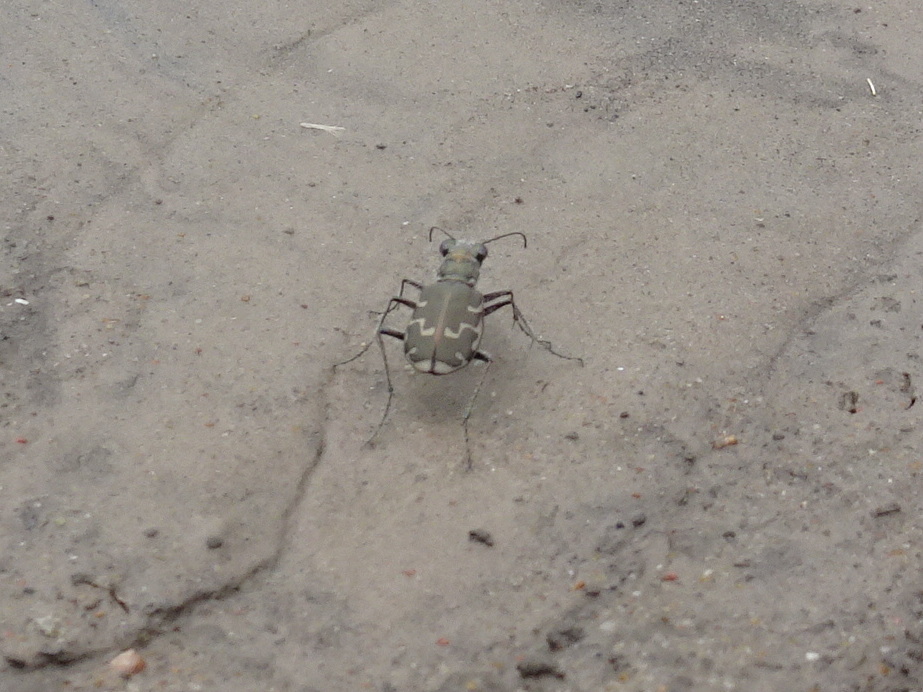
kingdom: Animalia
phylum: Arthropoda
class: Insecta
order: Coleoptera
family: Carabidae
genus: Cicindela
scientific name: Cicindela repanda
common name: Bronzed tiger beetle
